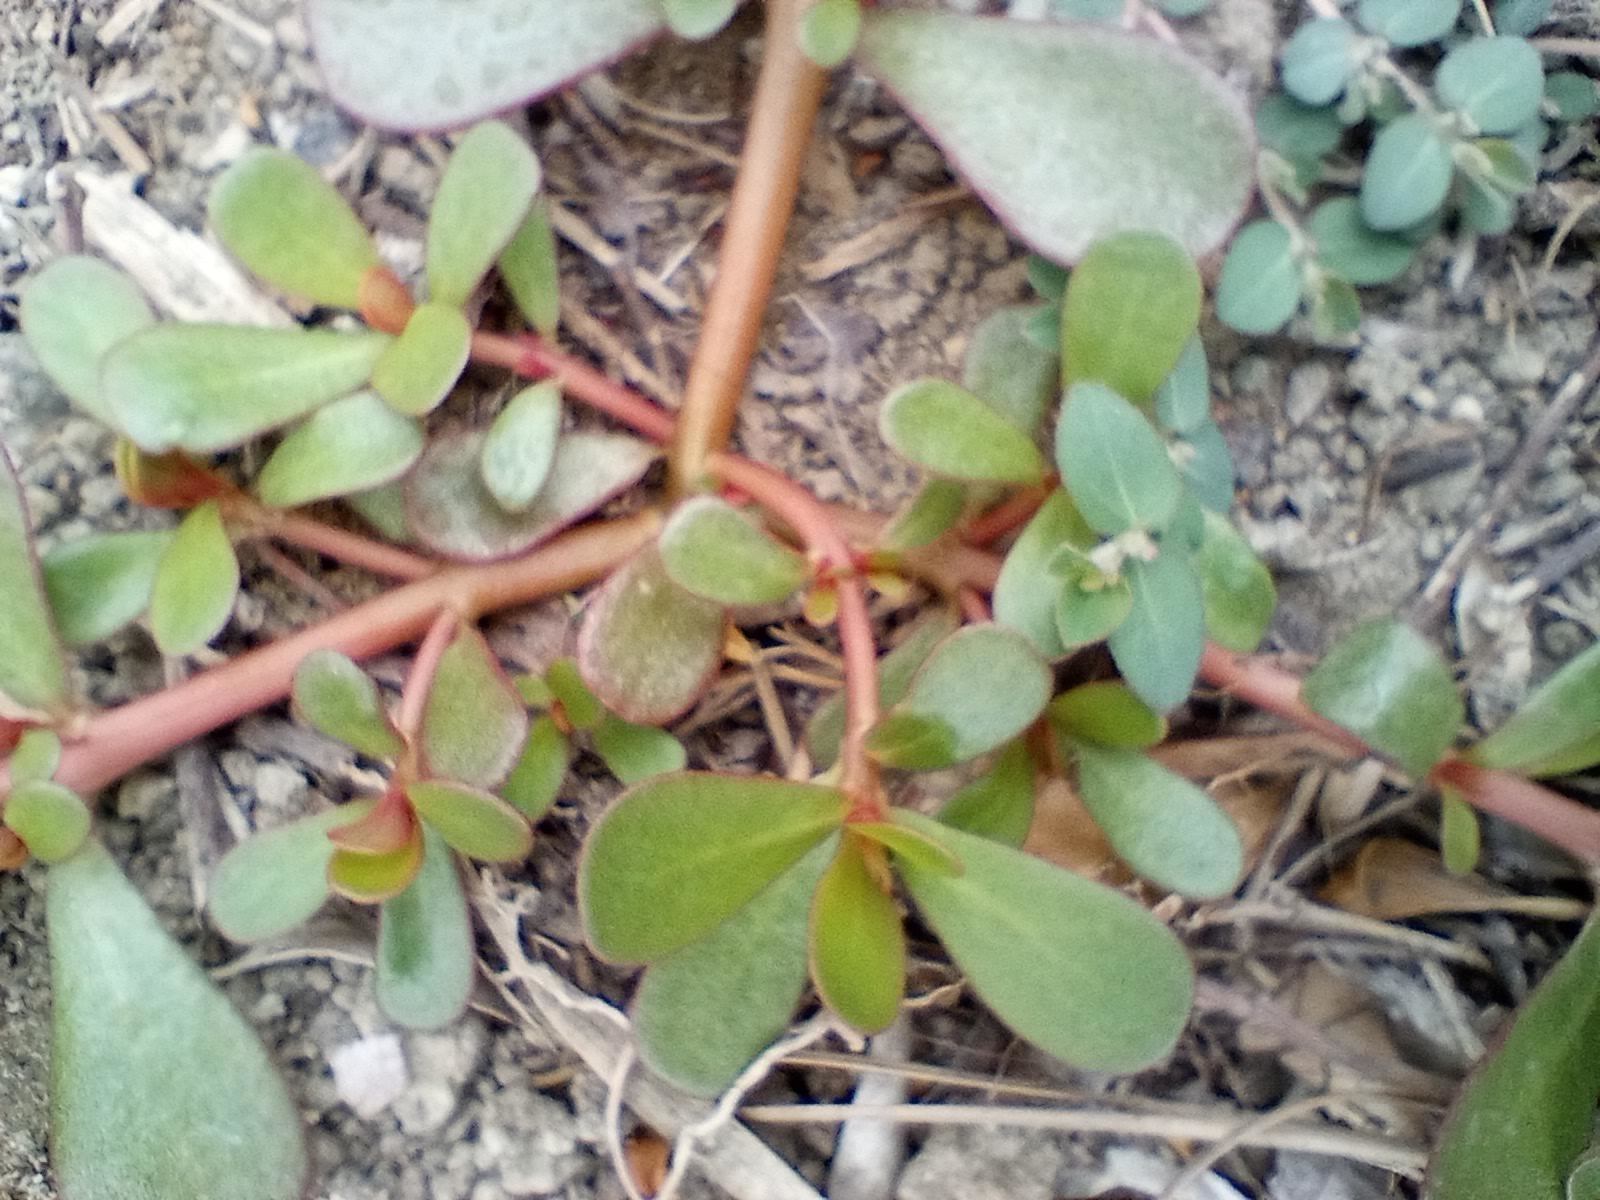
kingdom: Plantae
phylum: Tracheophyta
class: Magnoliopsida
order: Caryophyllales
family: Portulacaceae
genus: Portulaca
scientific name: Portulaca oleracea
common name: Common purslane
